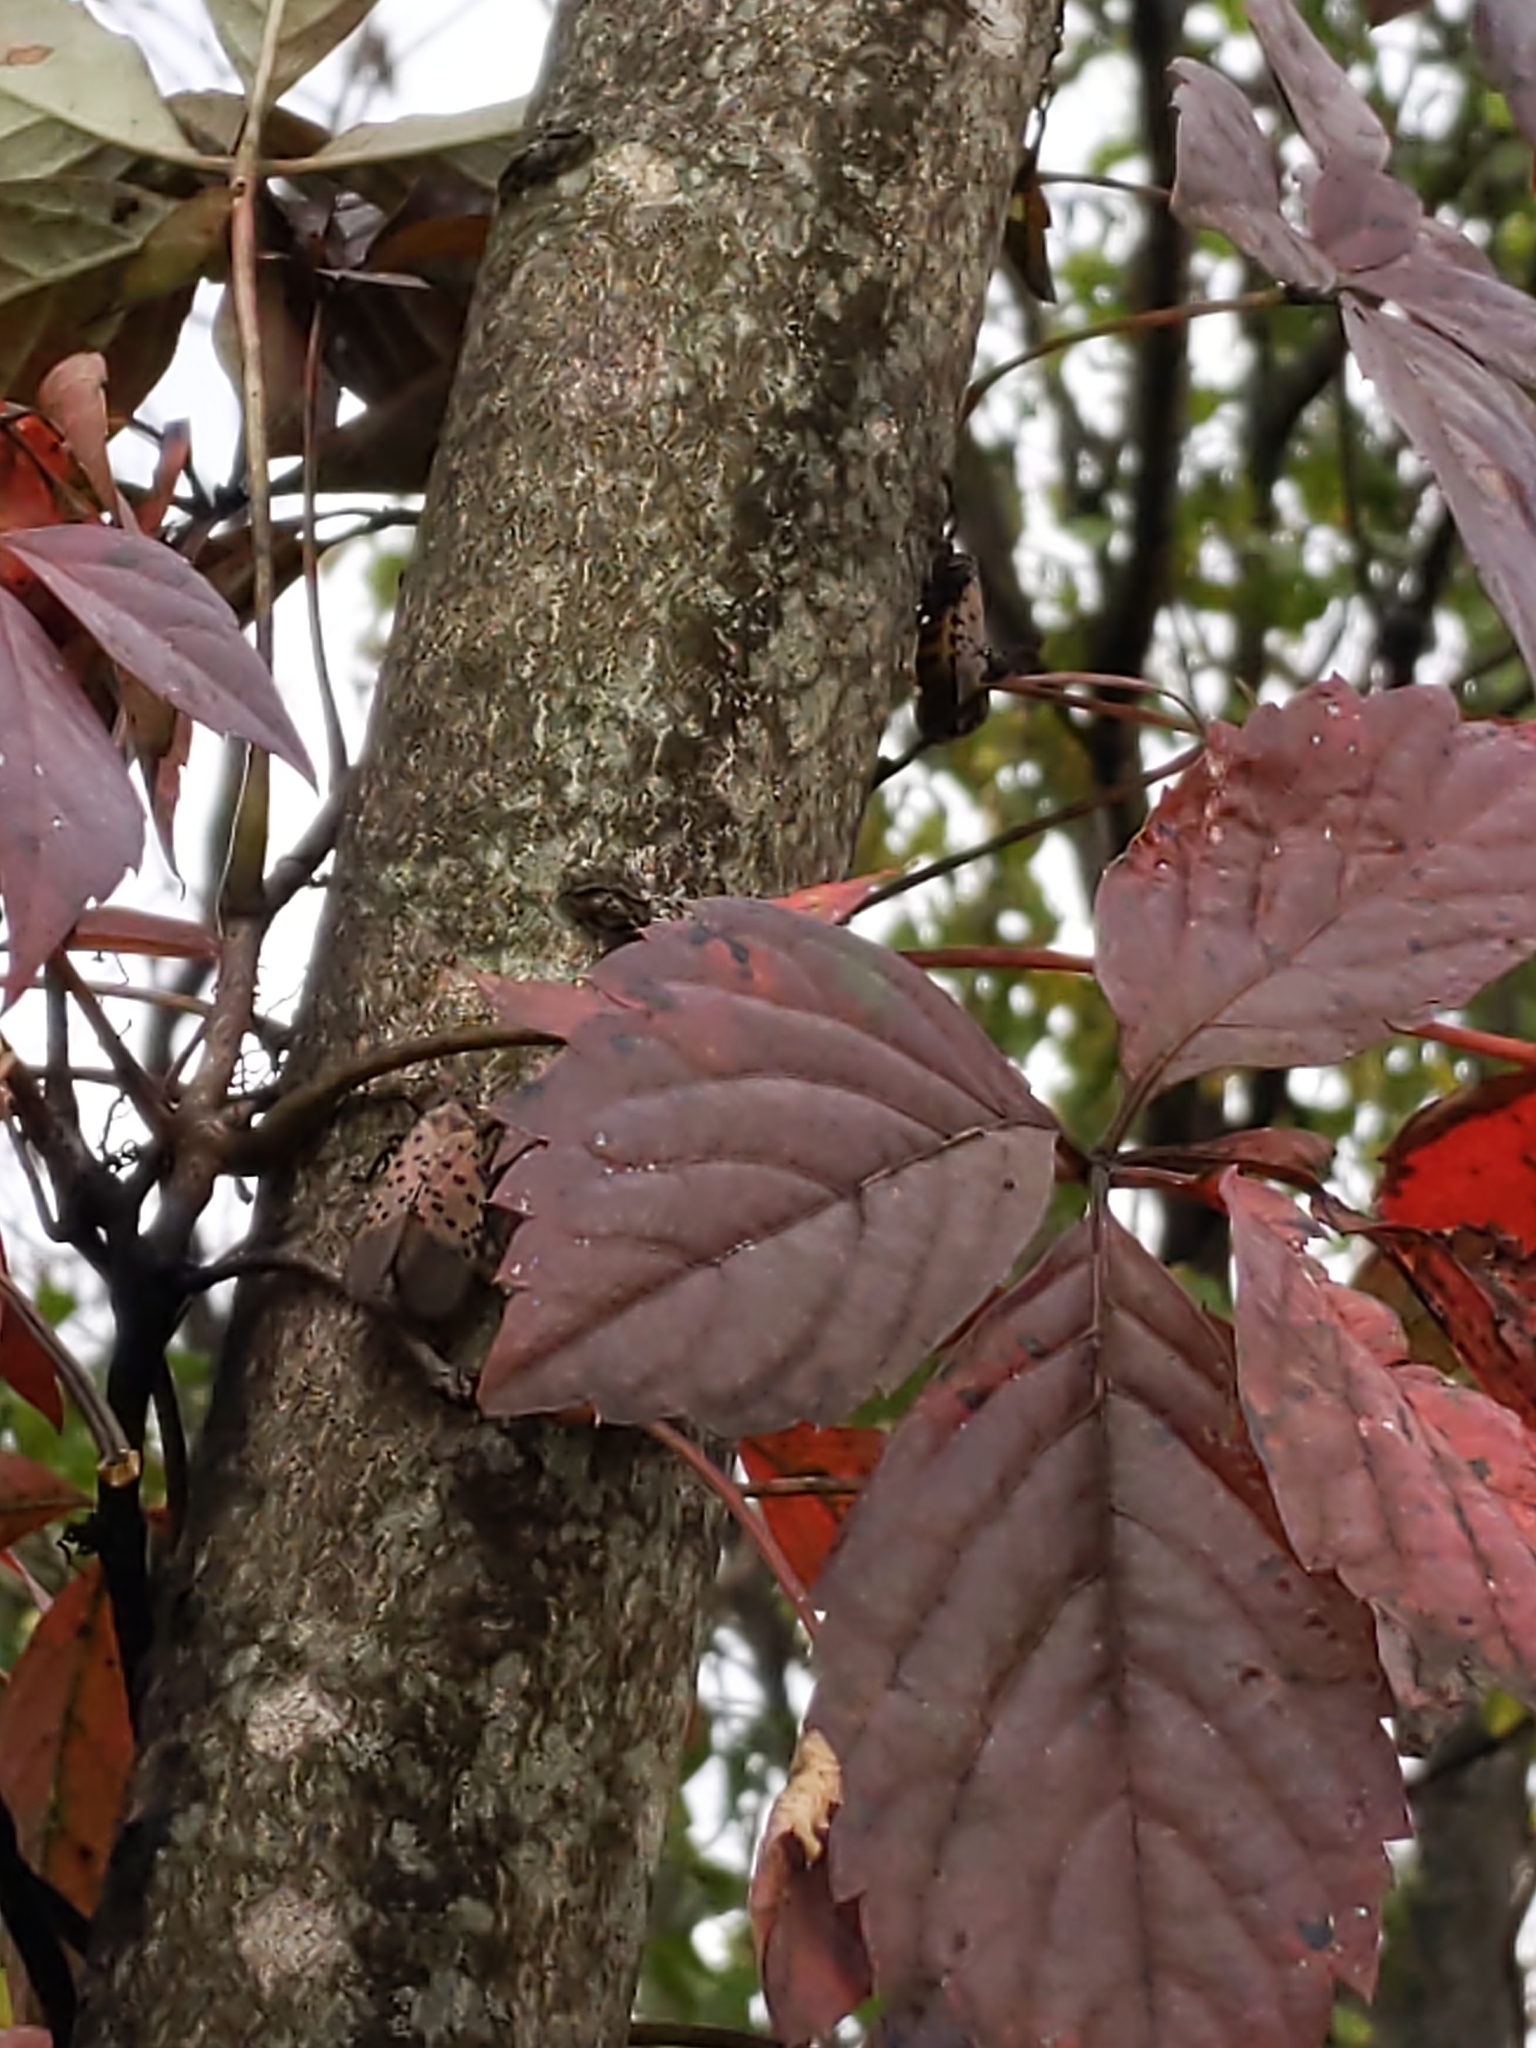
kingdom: Animalia
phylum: Arthropoda
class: Insecta
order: Hemiptera
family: Fulgoridae
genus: Lycorma
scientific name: Lycorma delicatula
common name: Spotted lanternfly
